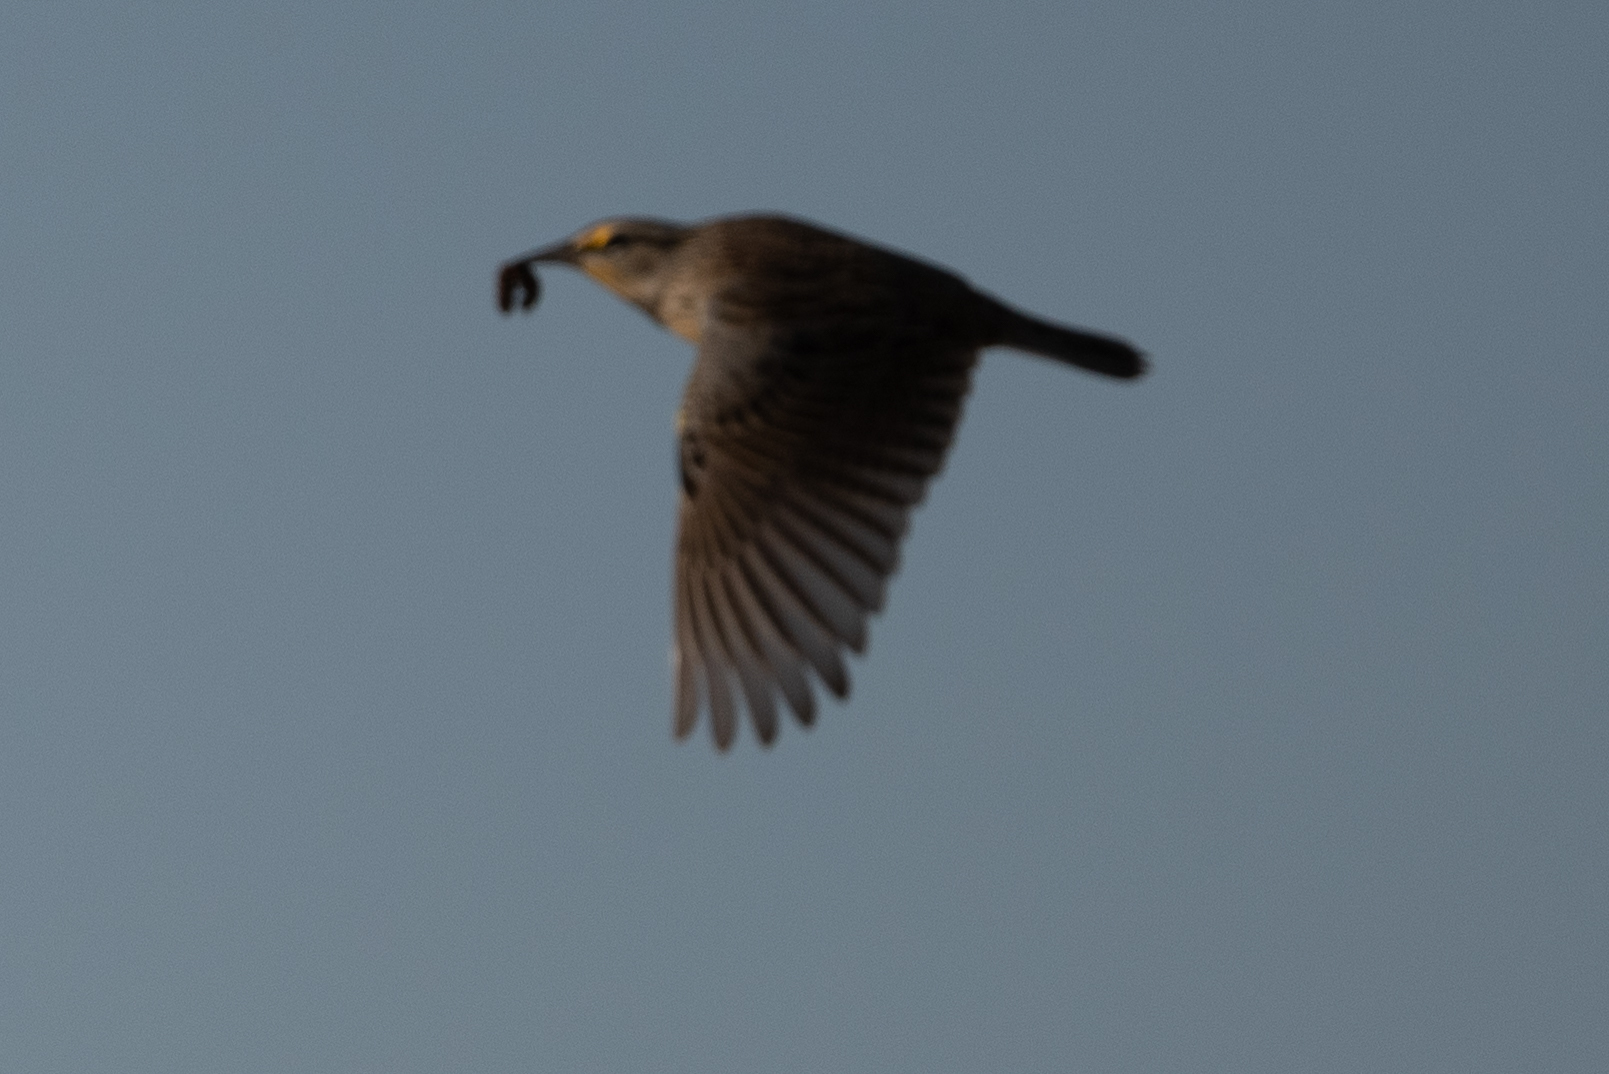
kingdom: Animalia
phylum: Chordata
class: Aves
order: Passeriformes
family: Icteridae
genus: Sturnella
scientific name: Sturnella neglecta
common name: Western meadowlark
